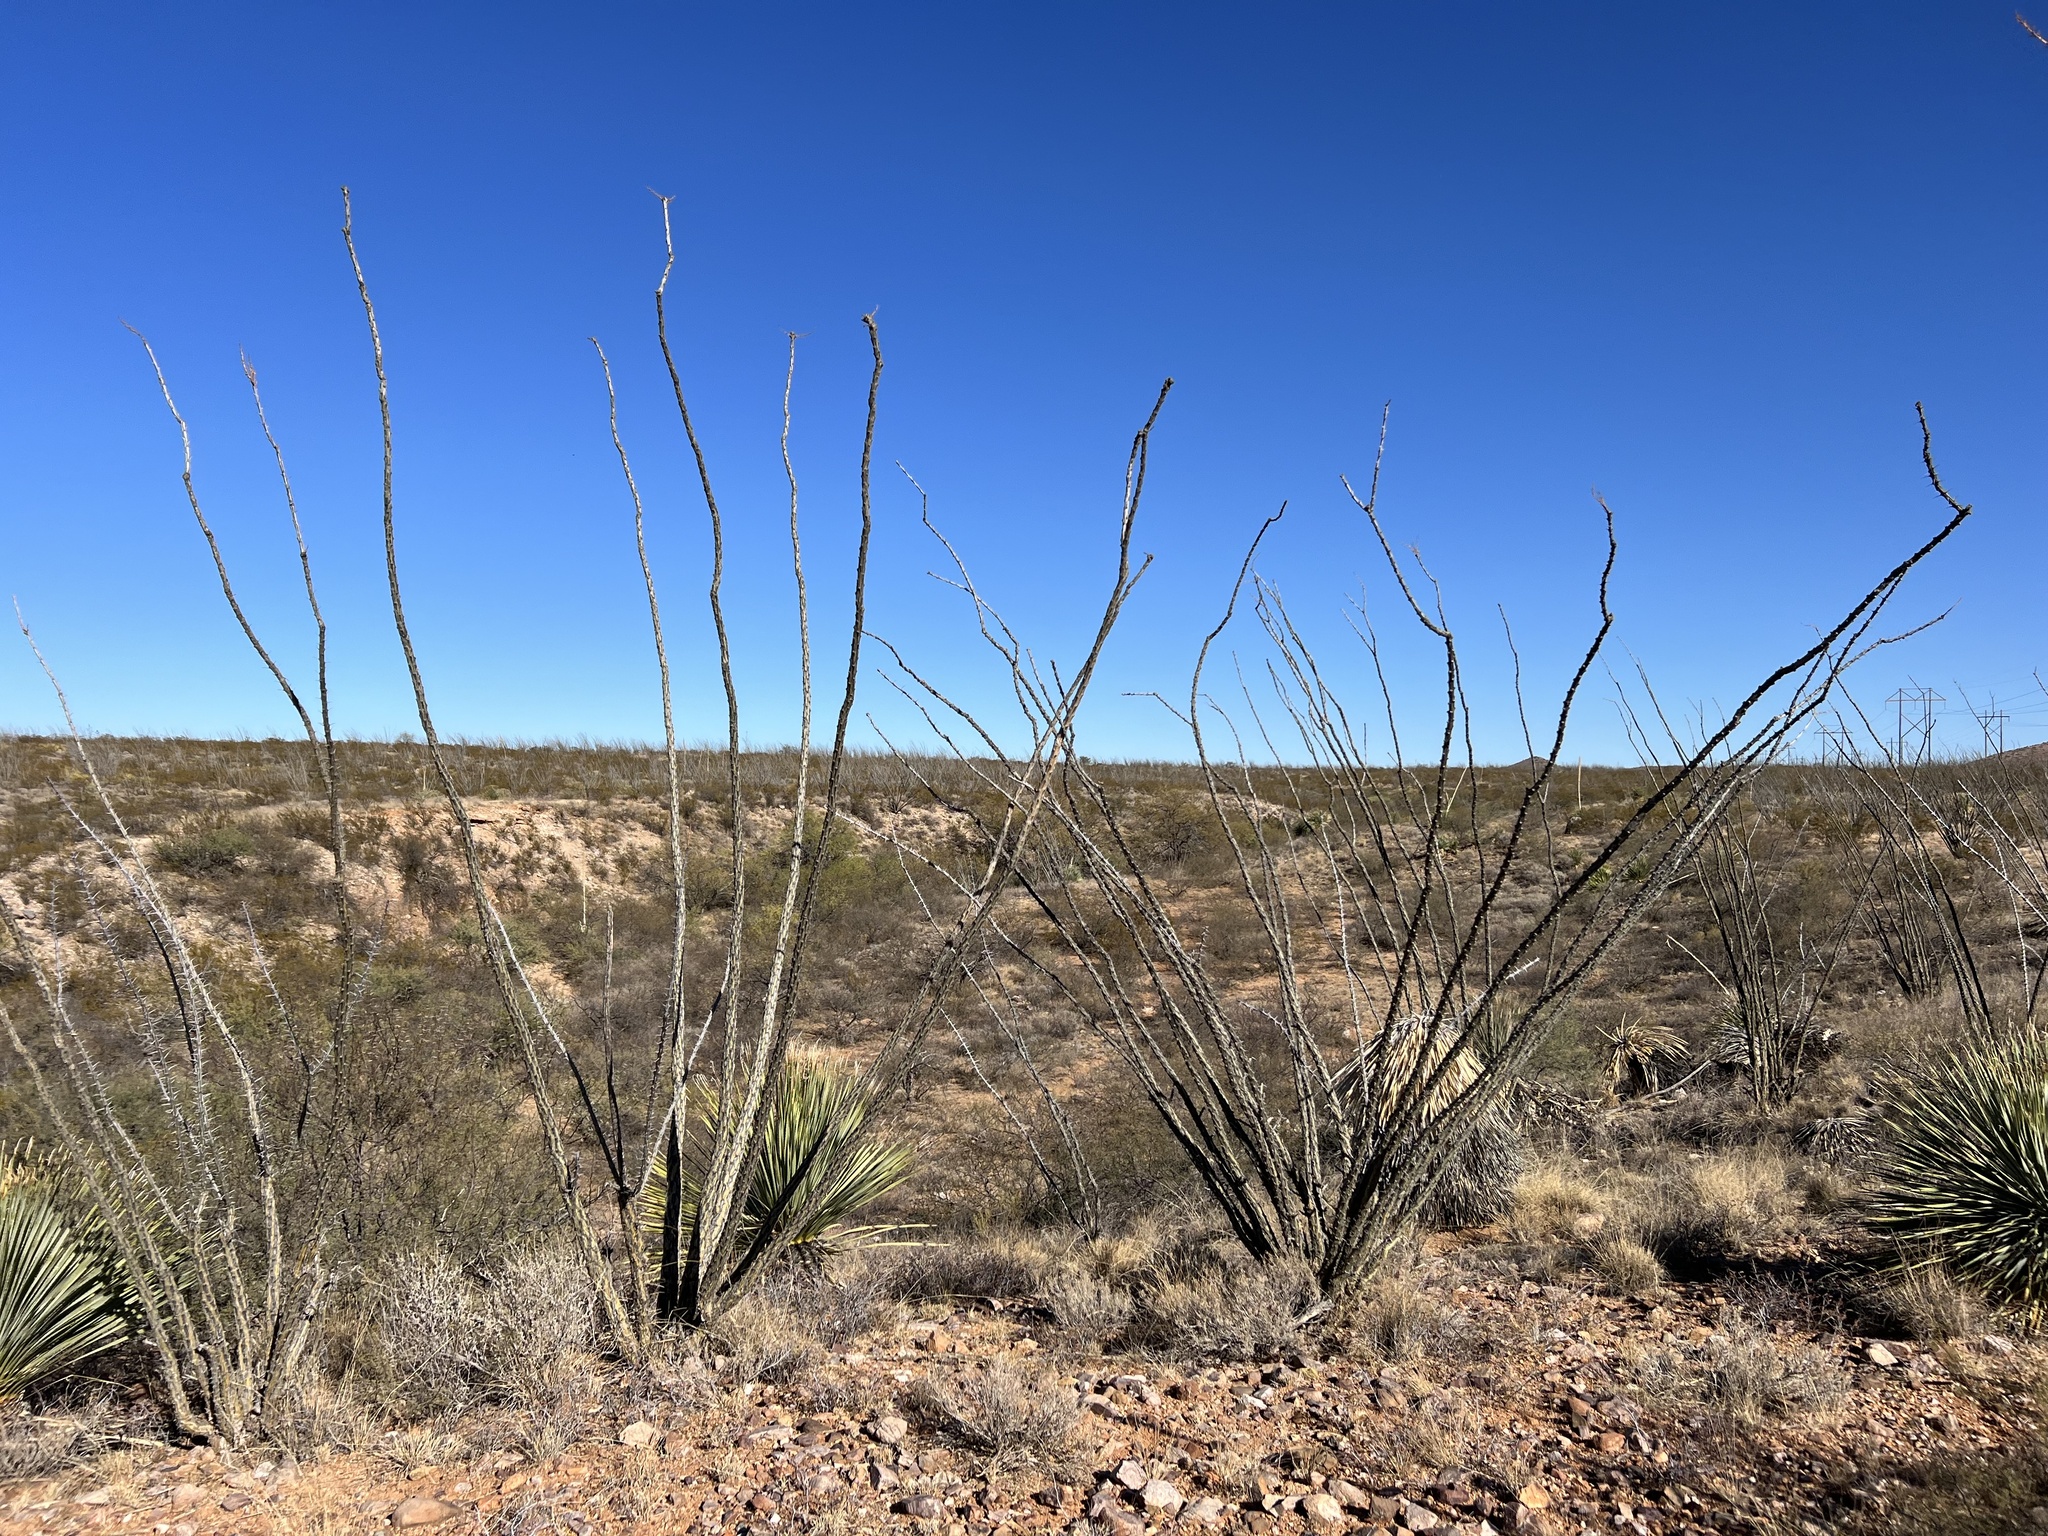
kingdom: Plantae
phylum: Tracheophyta
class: Magnoliopsida
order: Ericales
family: Fouquieriaceae
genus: Fouquieria
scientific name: Fouquieria splendens
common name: Vine-cactus
